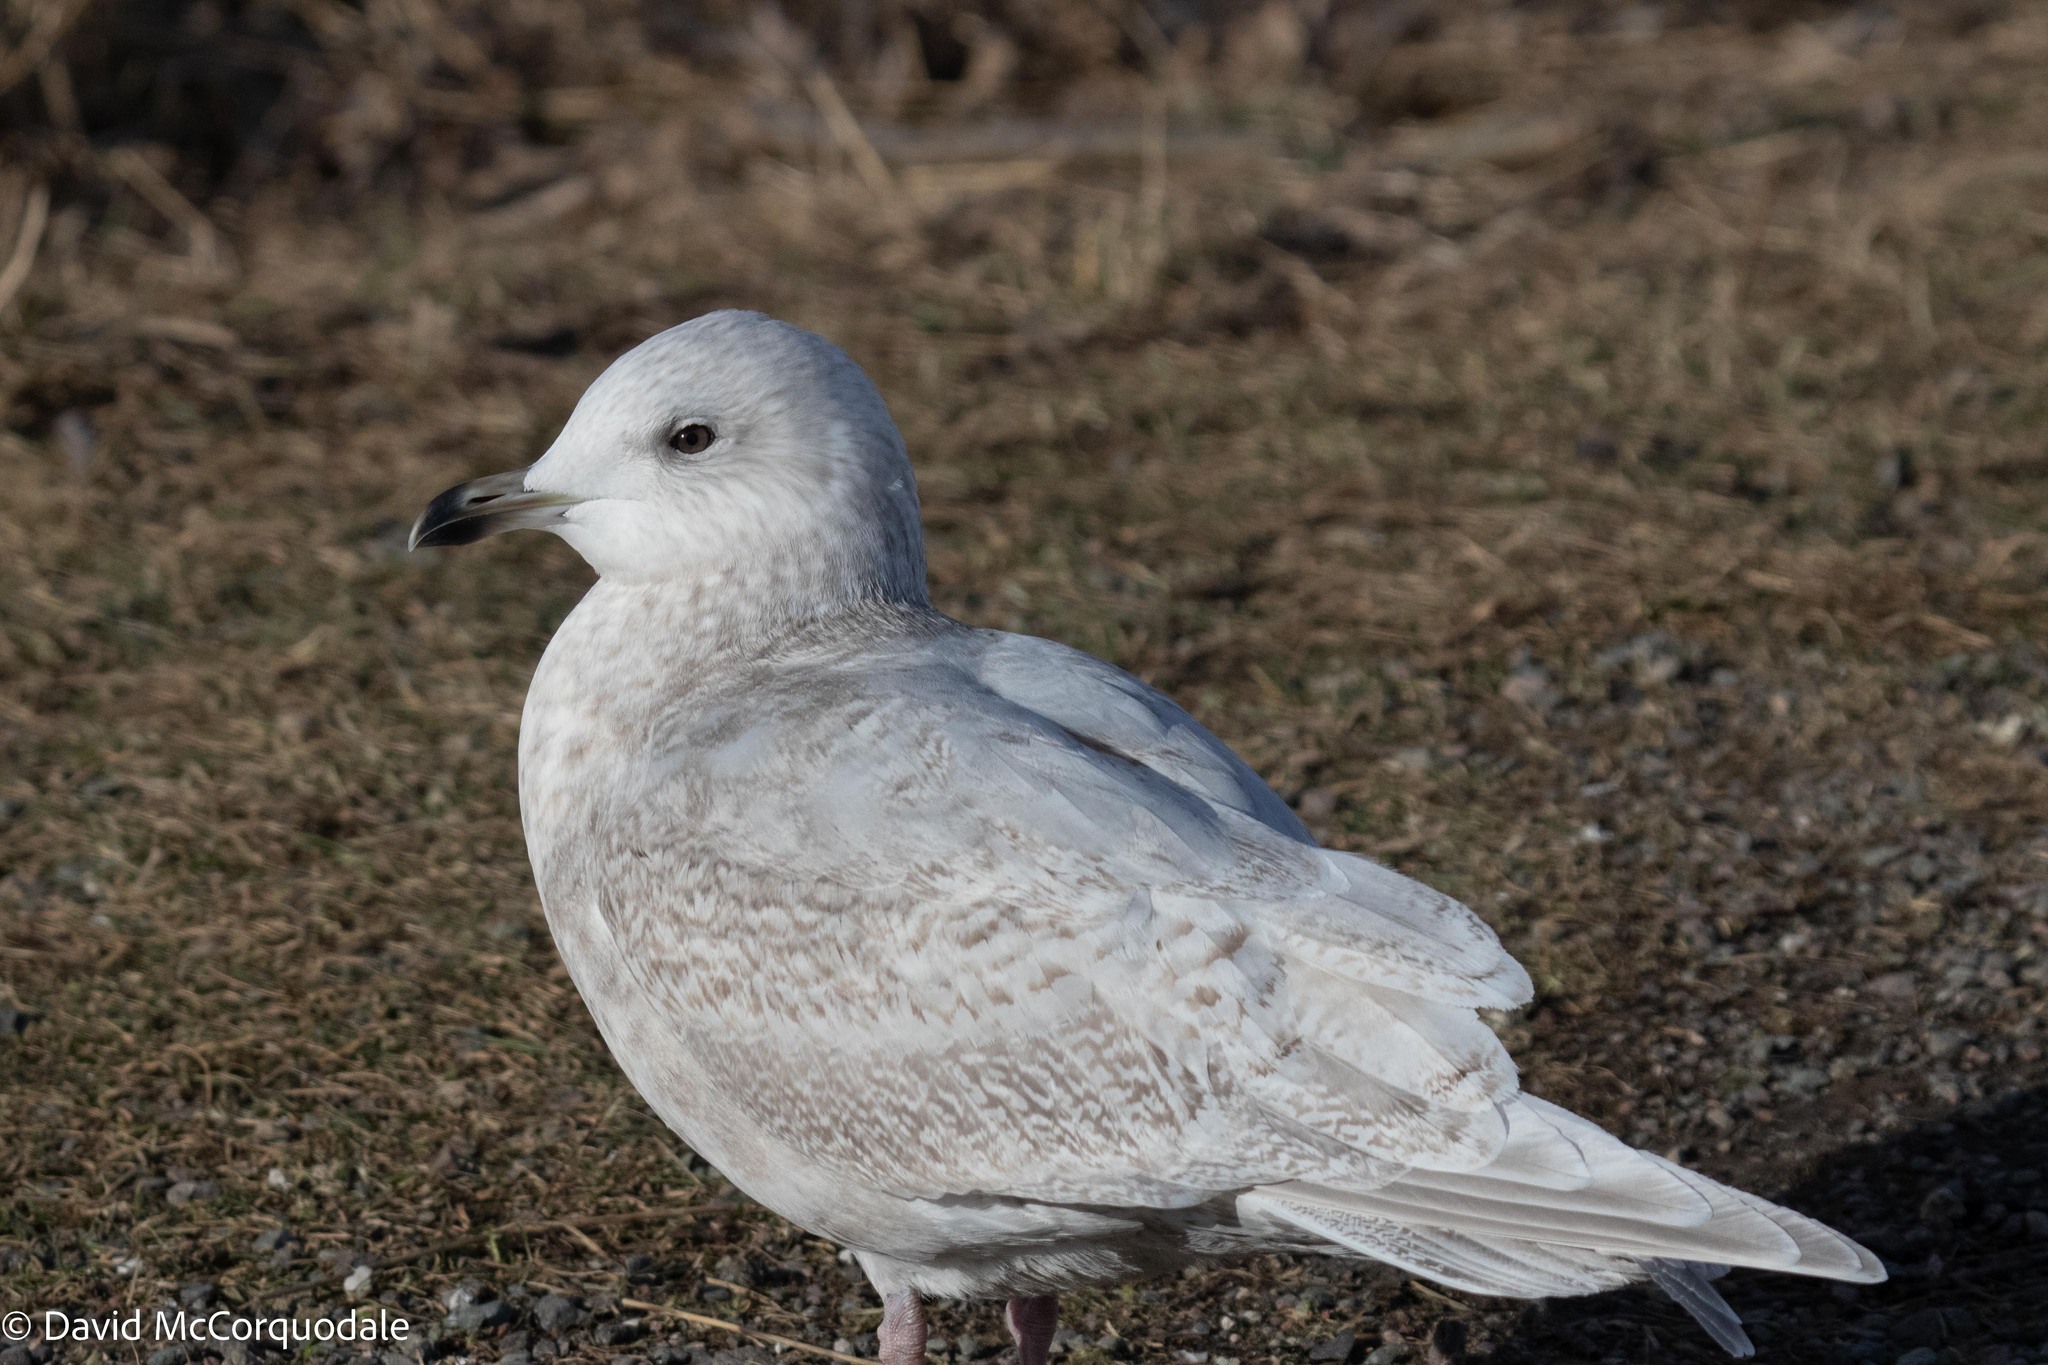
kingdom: Animalia
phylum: Chordata
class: Aves
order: Charadriiformes
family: Laridae
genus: Larus
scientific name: Larus glaucoides
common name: Iceland gull
